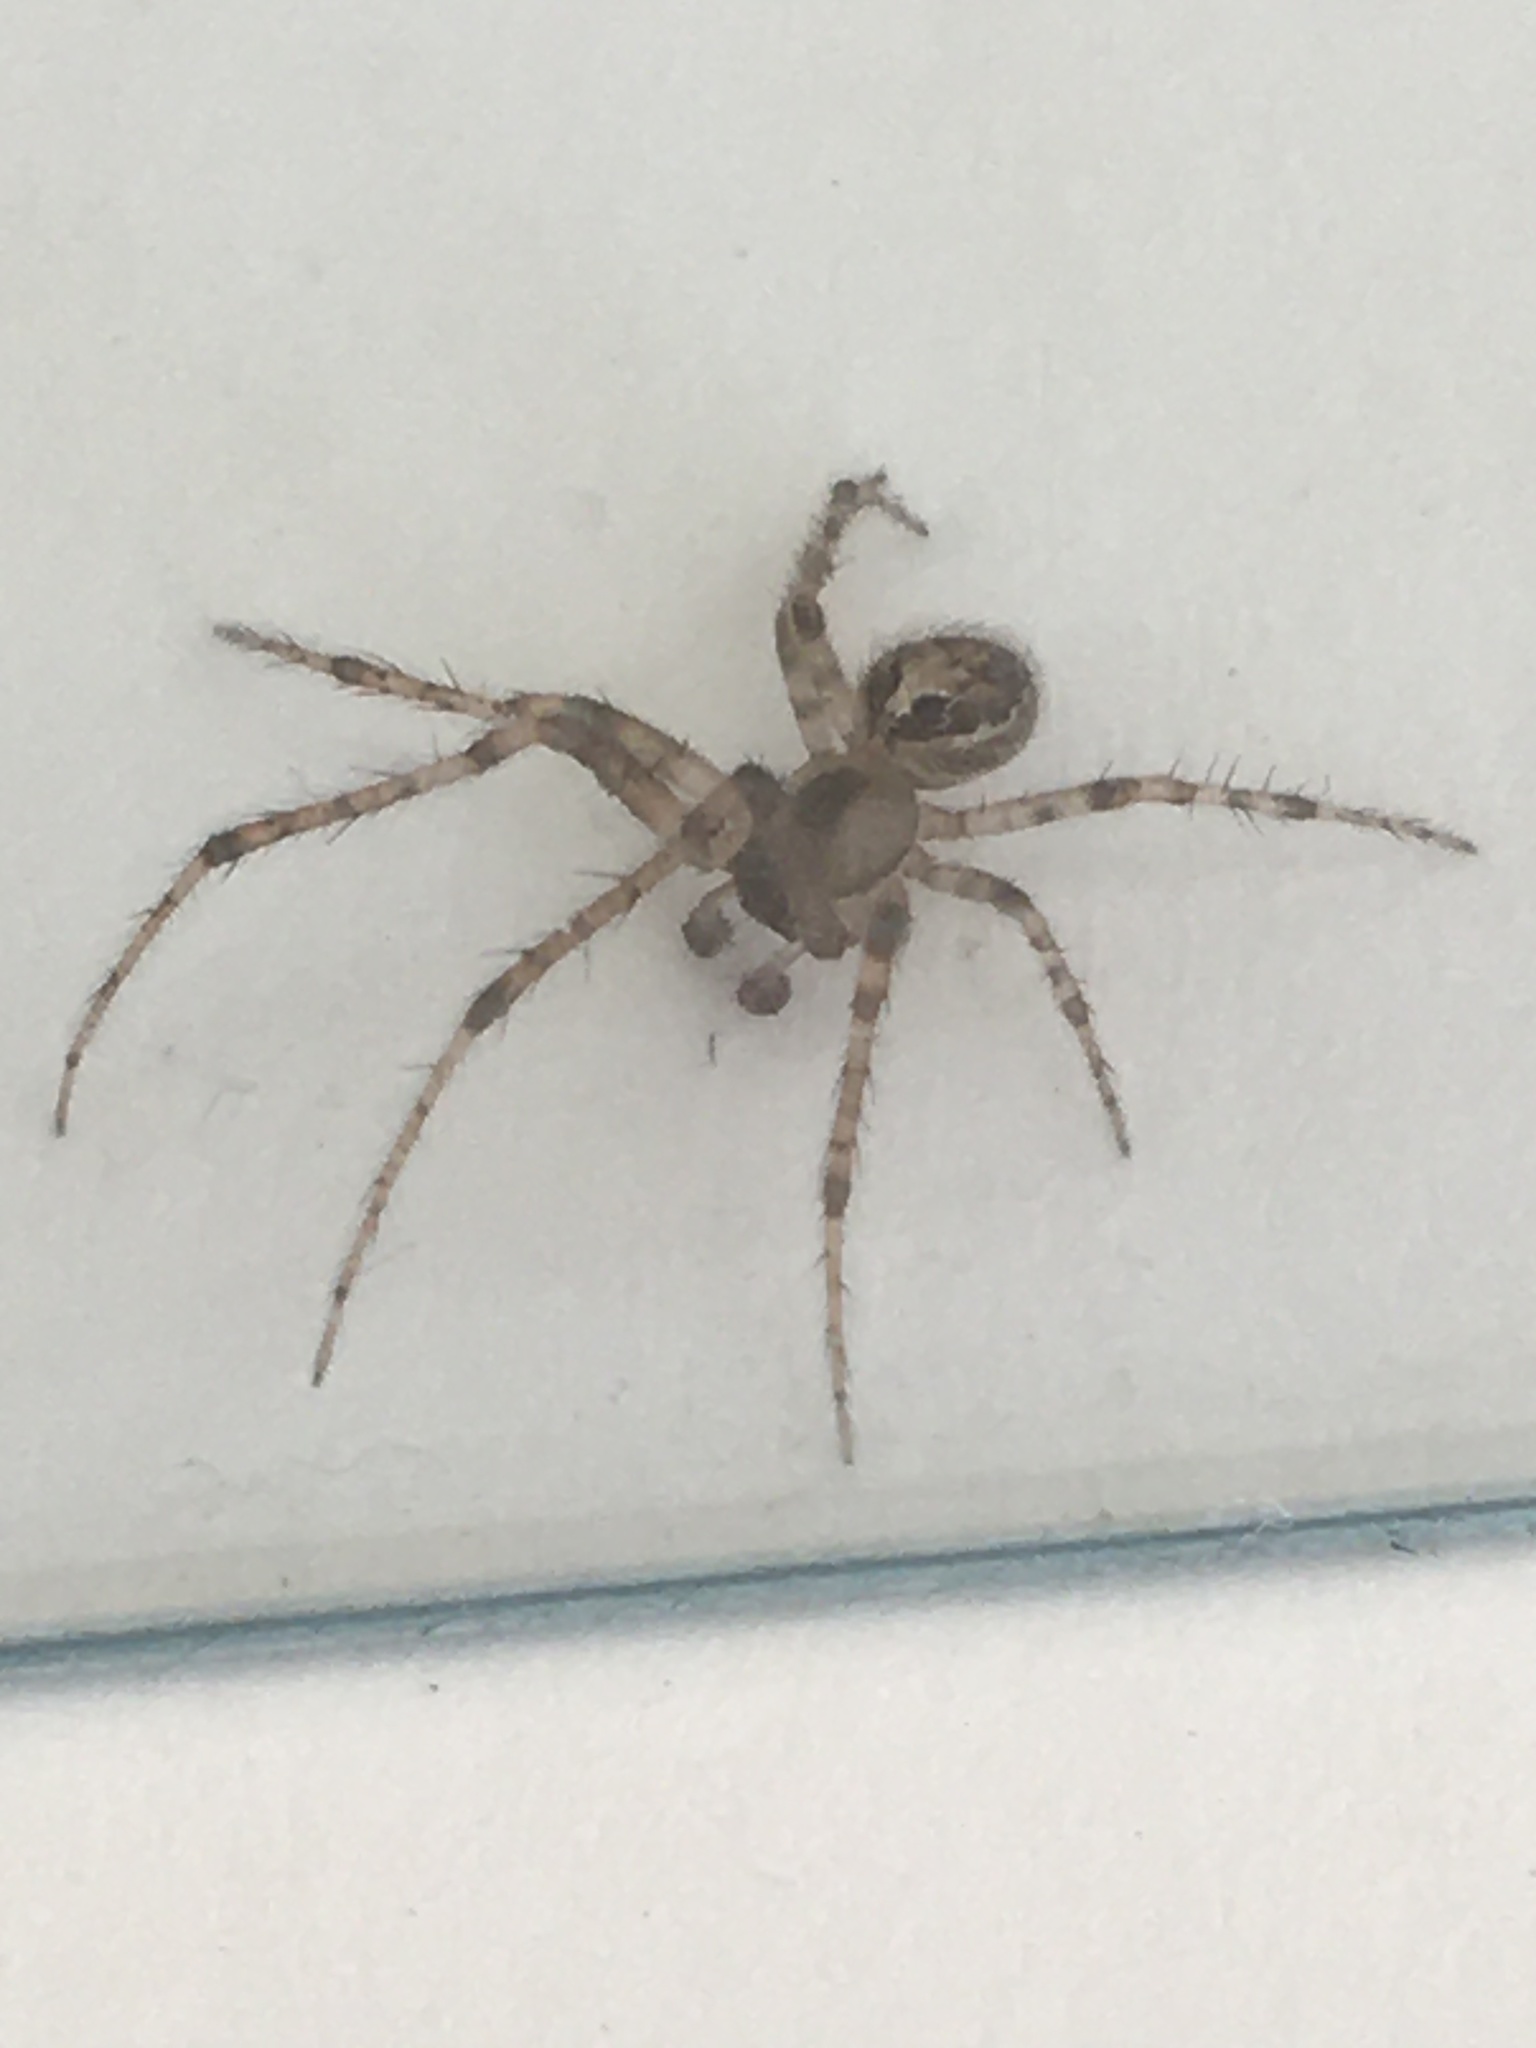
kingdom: Animalia
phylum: Arthropoda
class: Arachnida
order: Araneae
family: Araneidae
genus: Zygiella
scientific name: Zygiella x-notata
